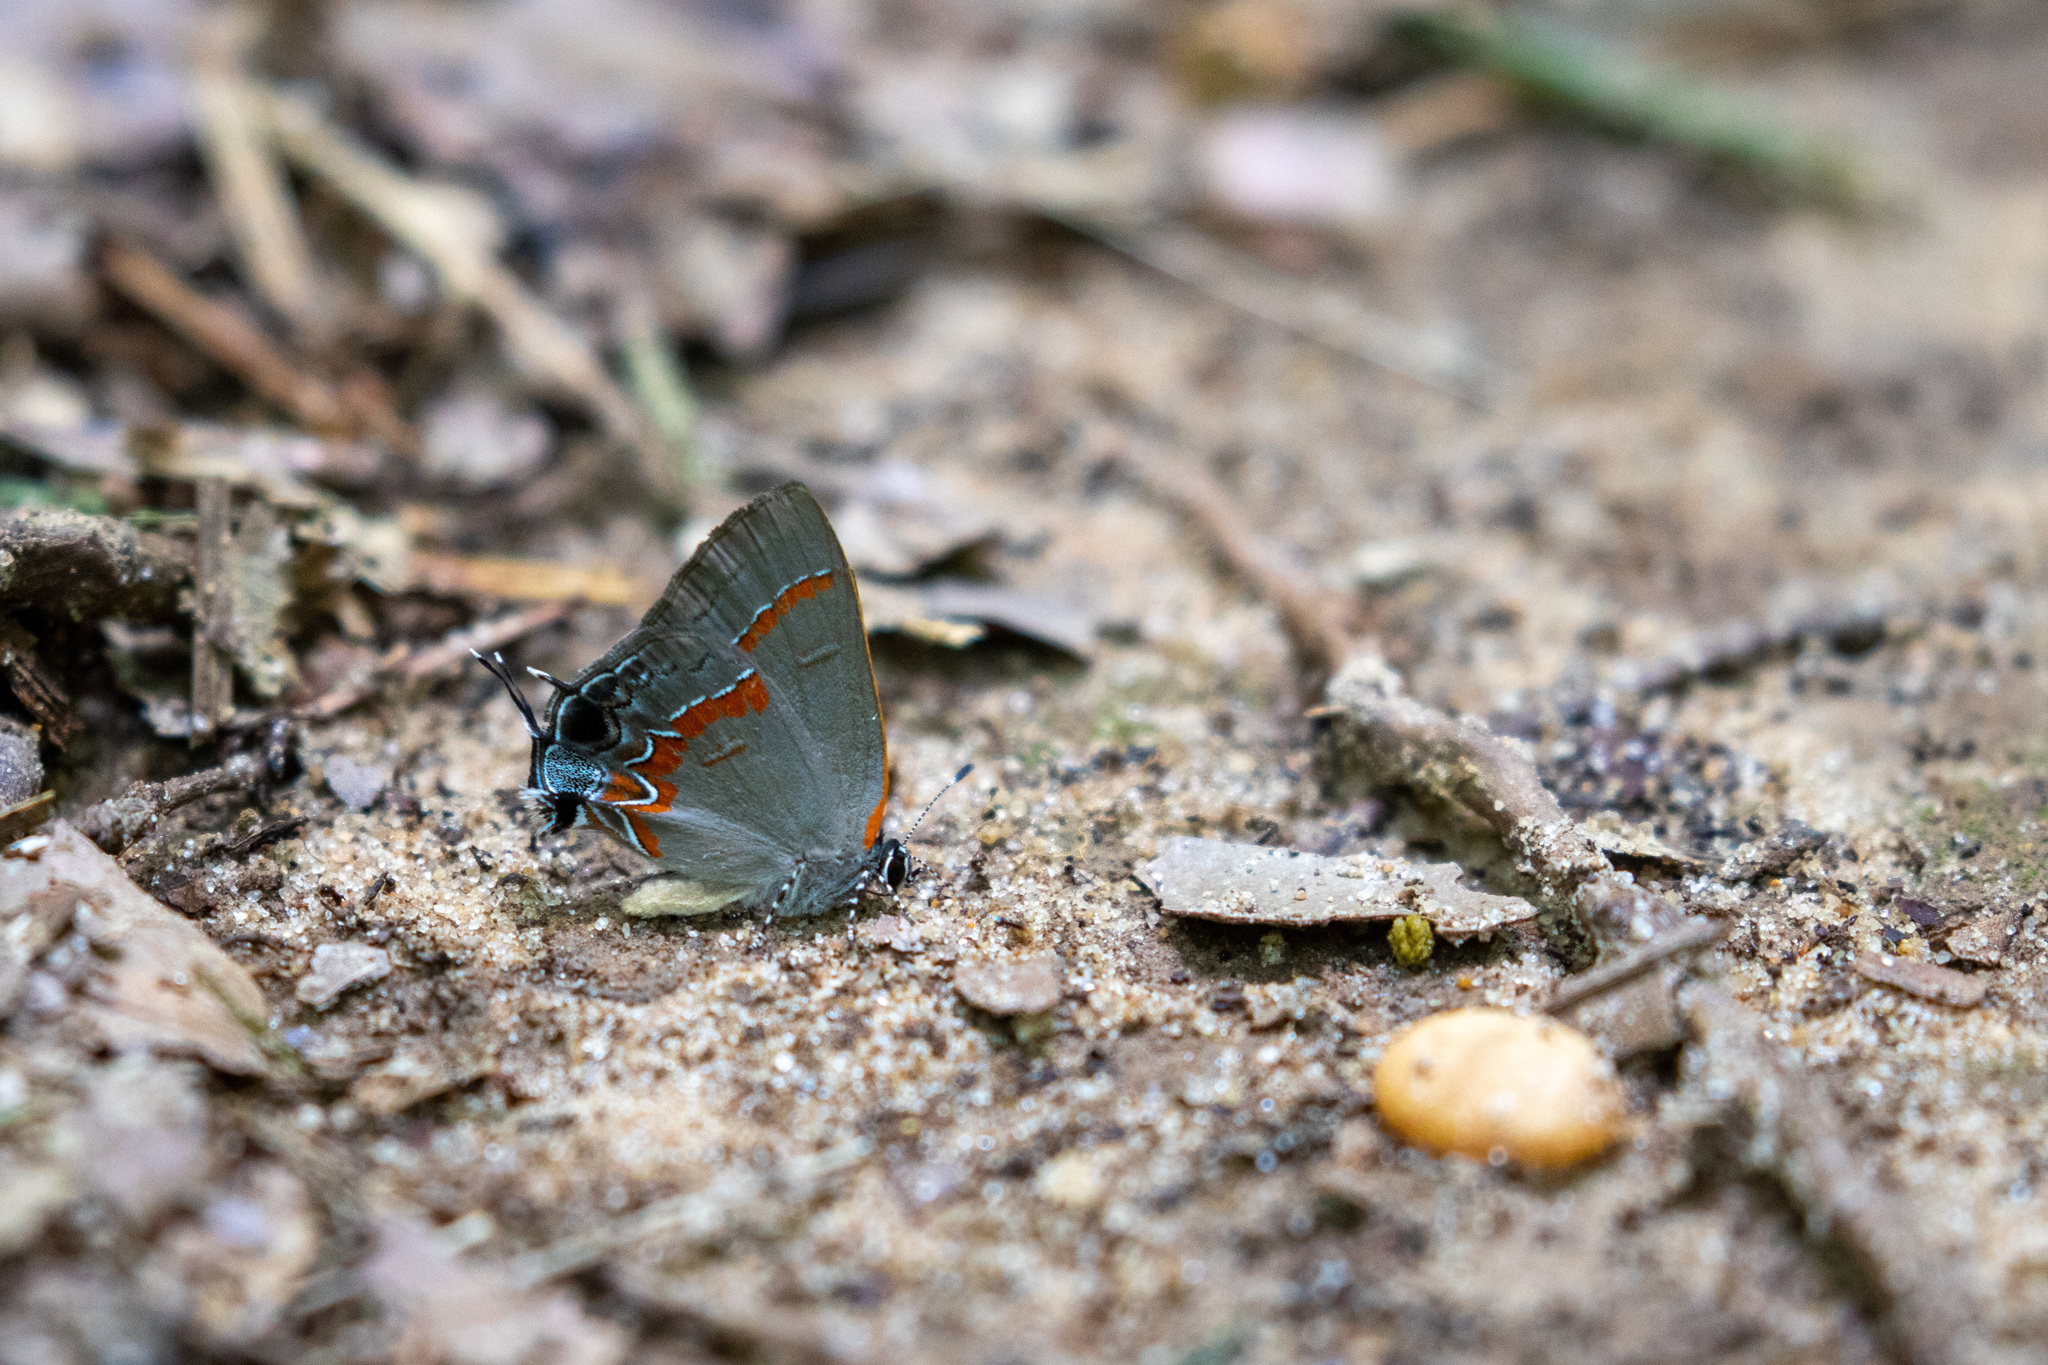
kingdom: Animalia
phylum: Arthropoda
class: Insecta
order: Lepidoptera
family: Lycaenidae
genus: Calycopis
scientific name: Calycopis cecrops
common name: Red-banded hairstreak
